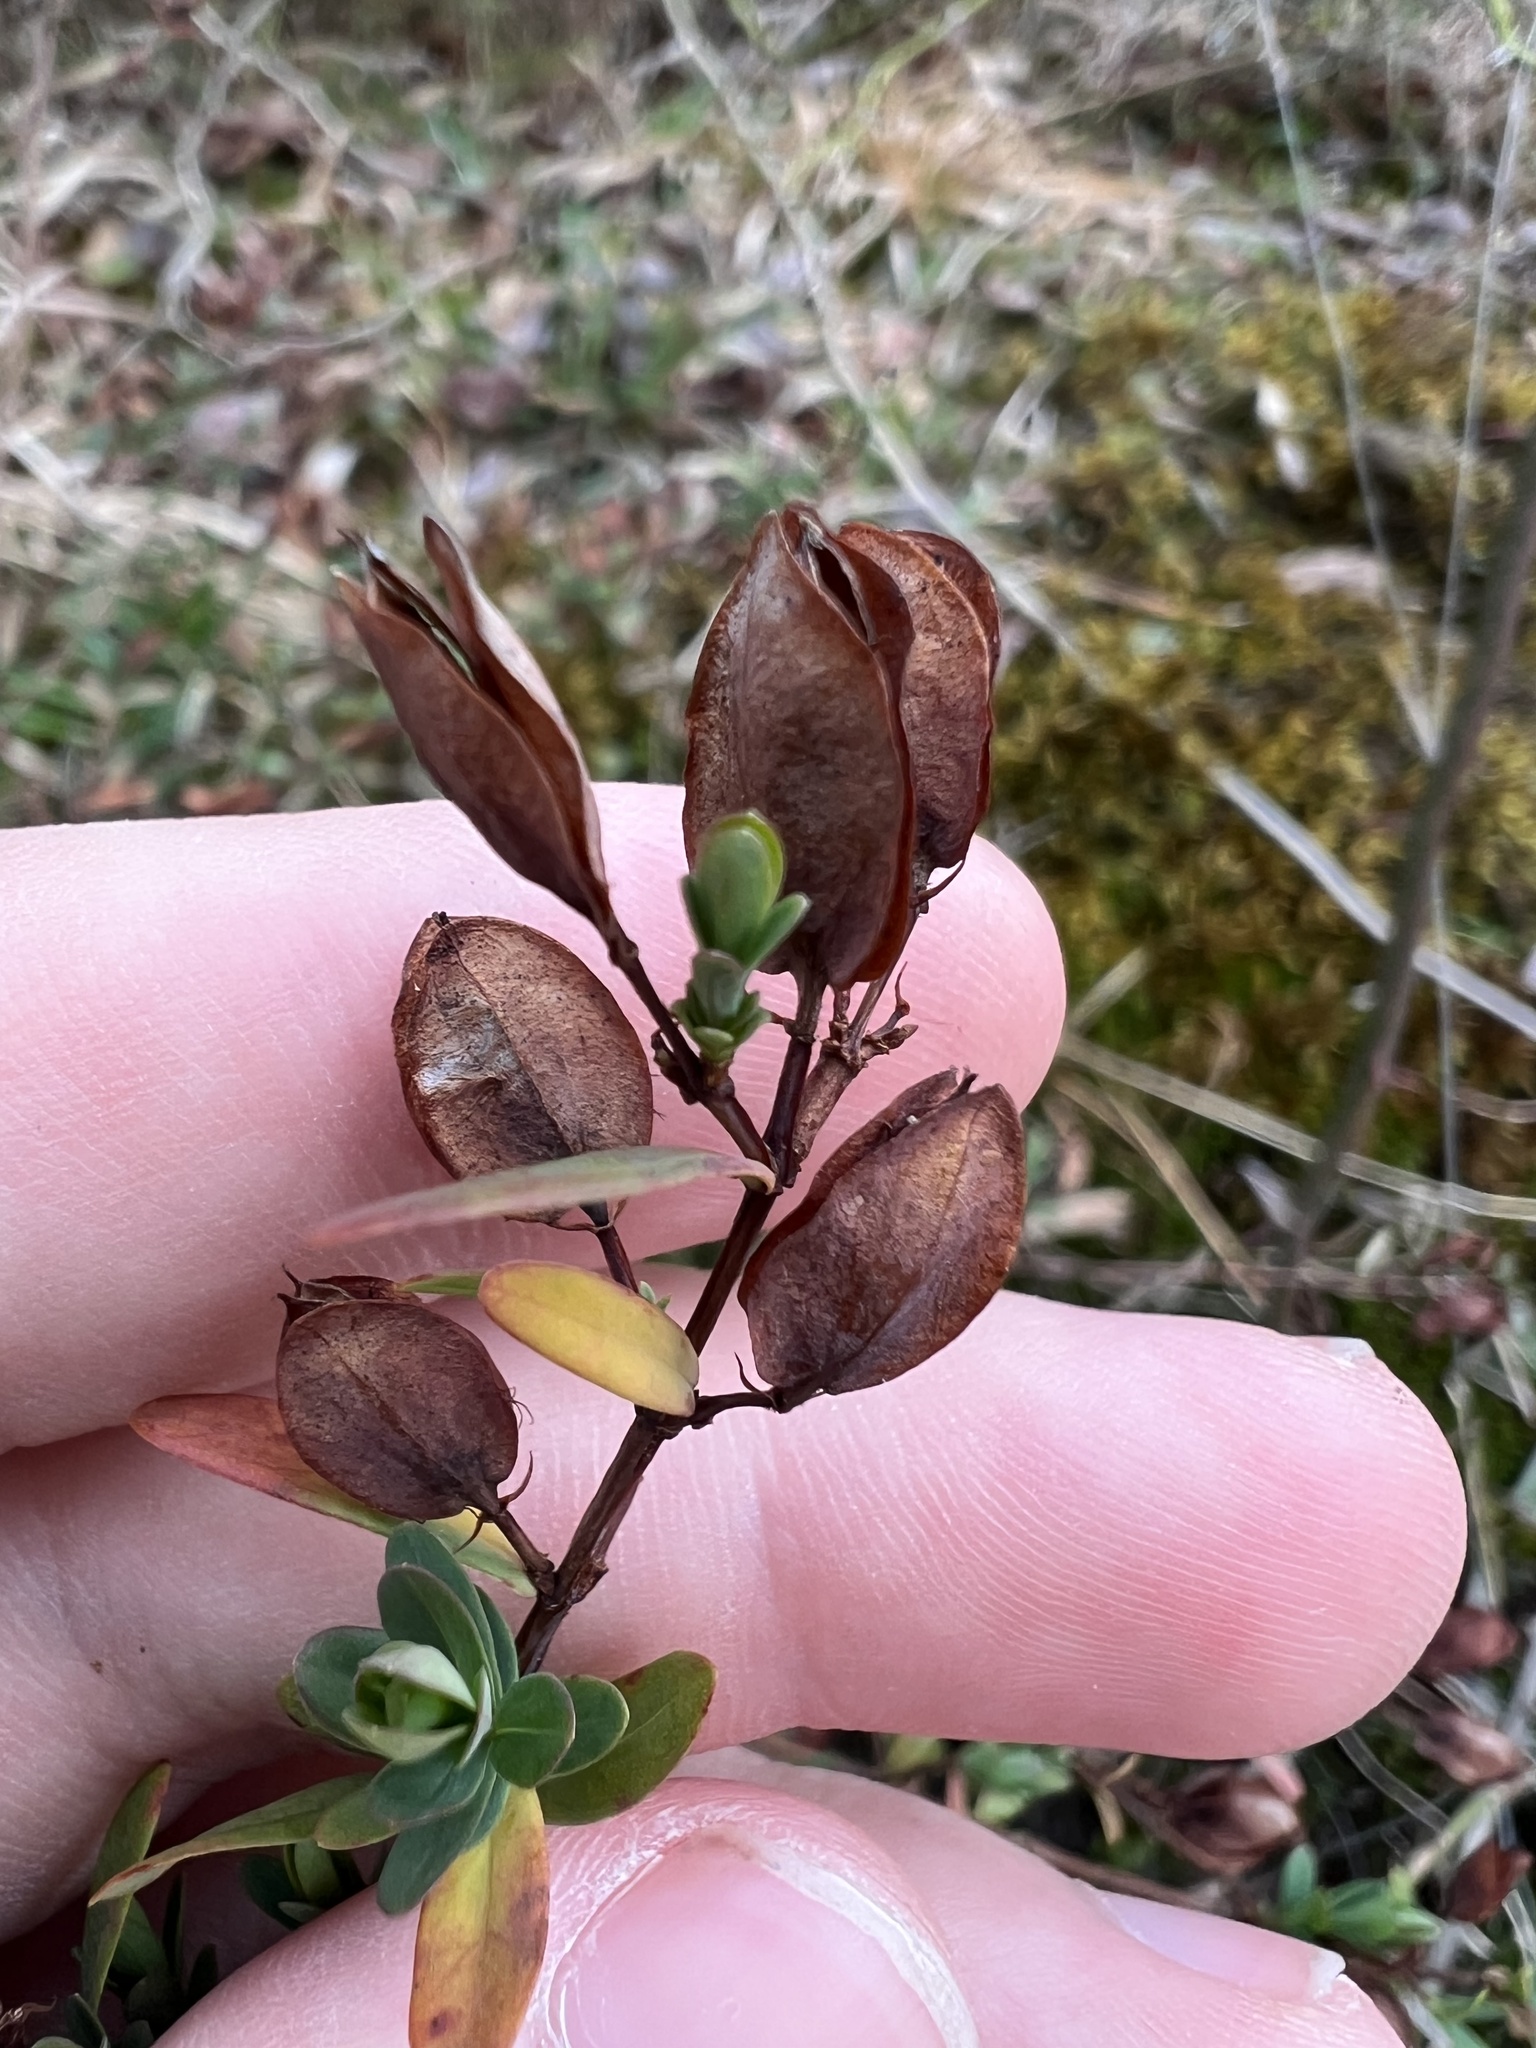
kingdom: Plantae
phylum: Tracheophyta
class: Magnoliopsida
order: Malpighiales
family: Hypericaceae
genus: Hypericum
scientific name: Hypericum crux-andreae
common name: St.-peter's-wort
